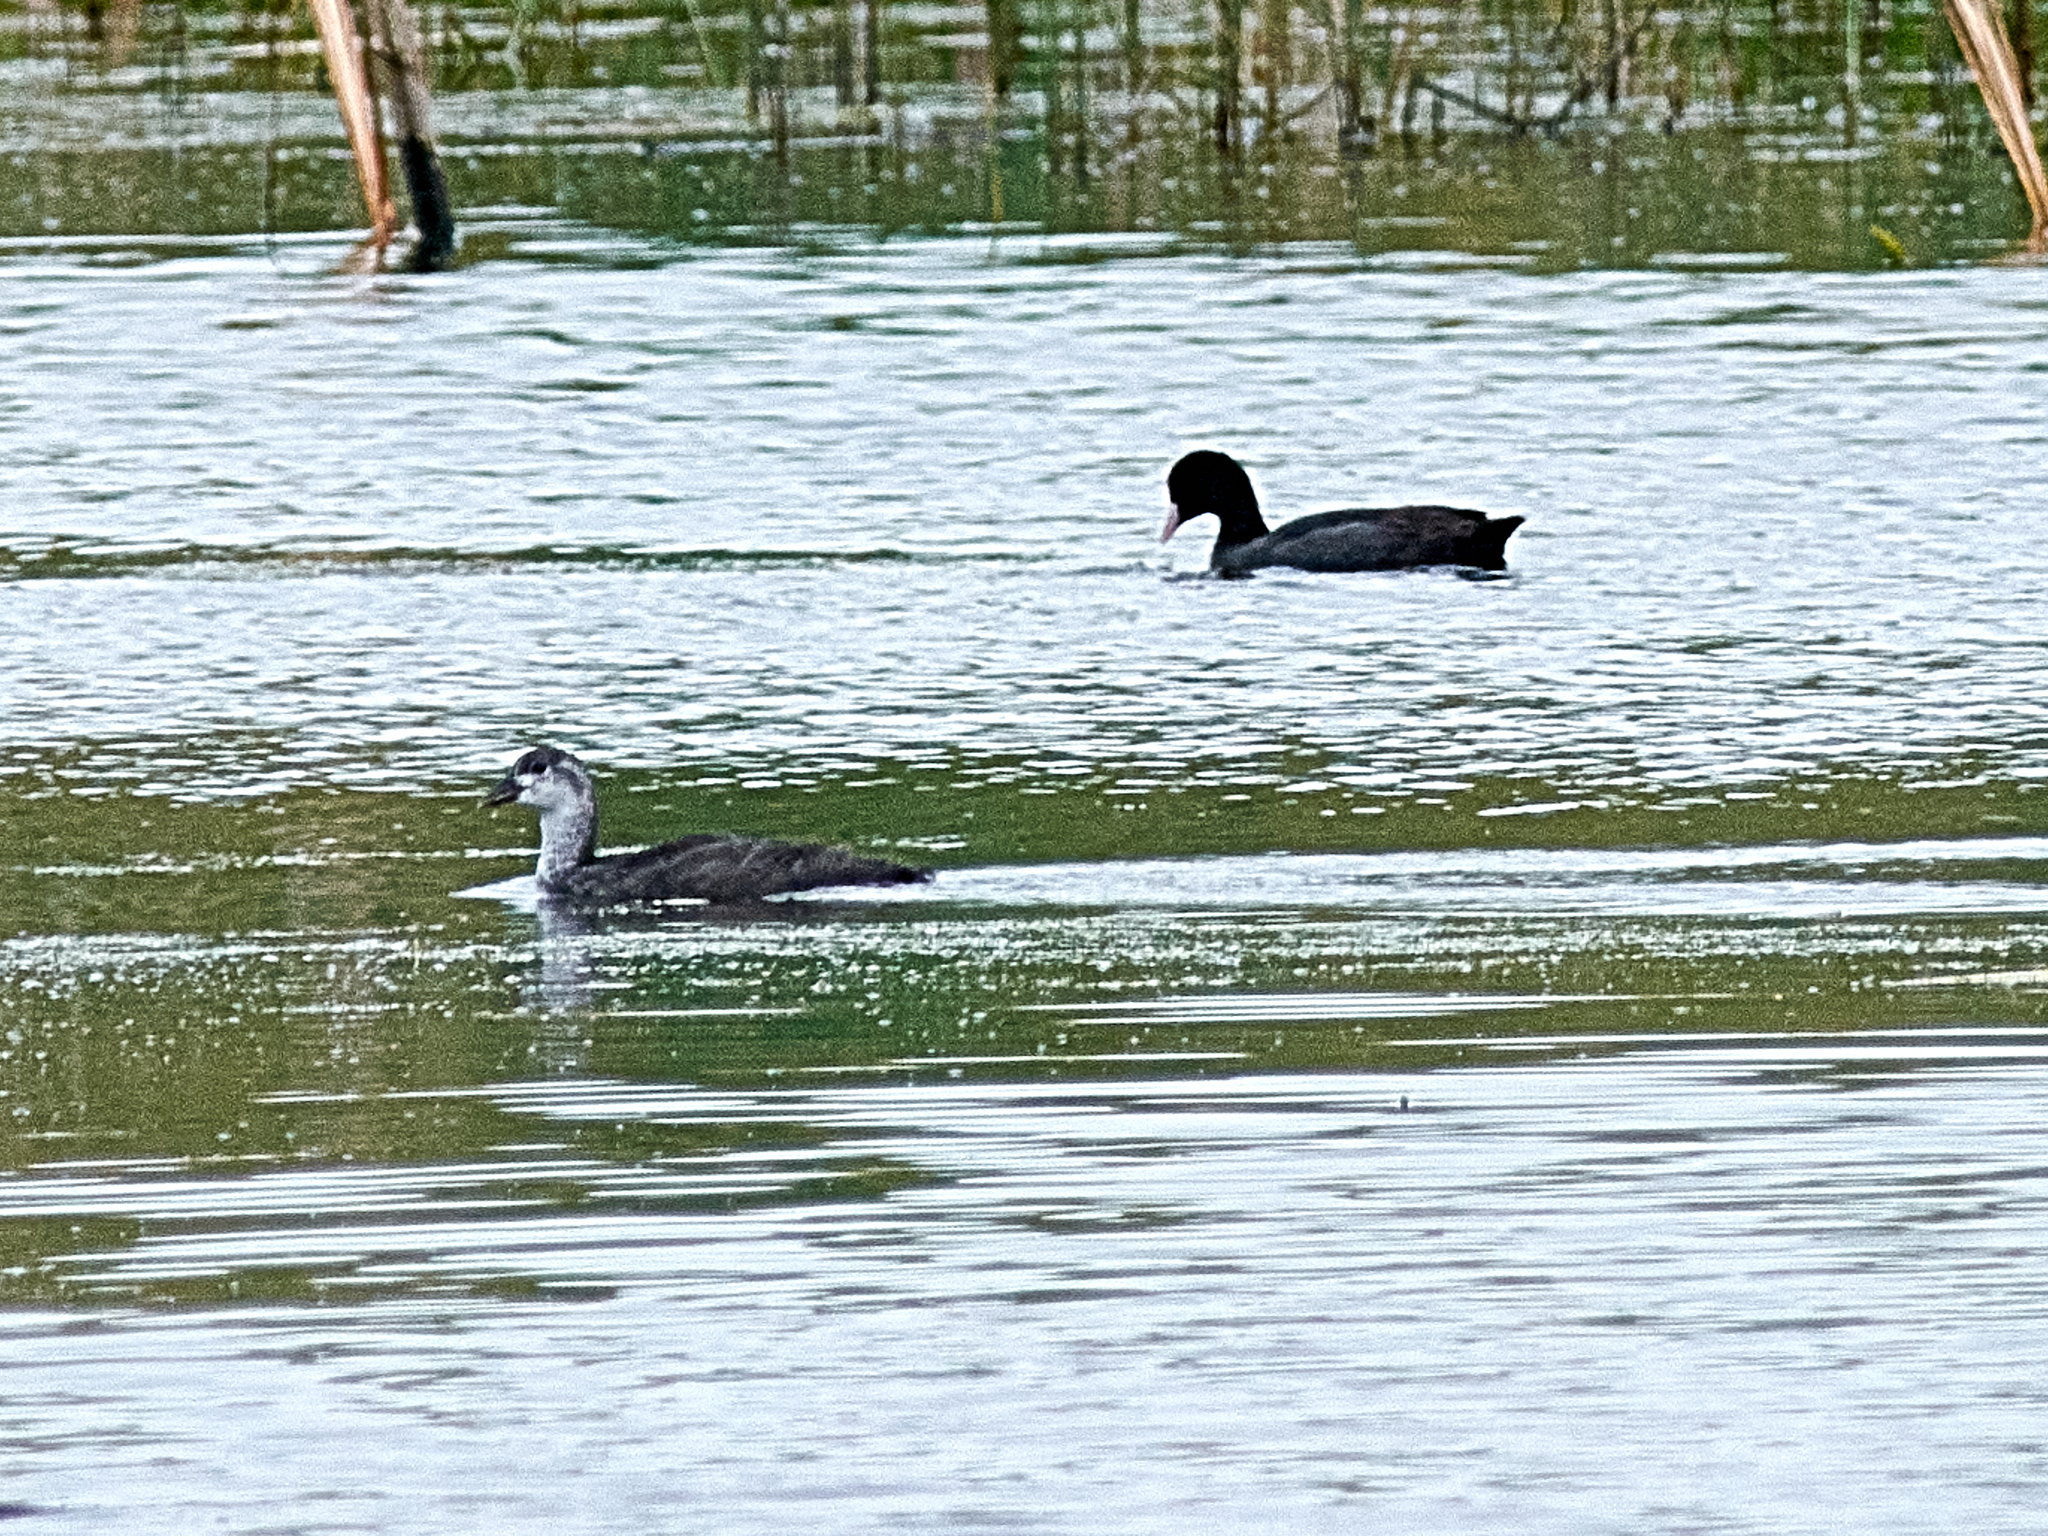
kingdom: Animalia
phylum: Chordata
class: Aves
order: Gruiformes
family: Rallidae
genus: Fulica
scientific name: Fulica atra
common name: Eurasian coot
